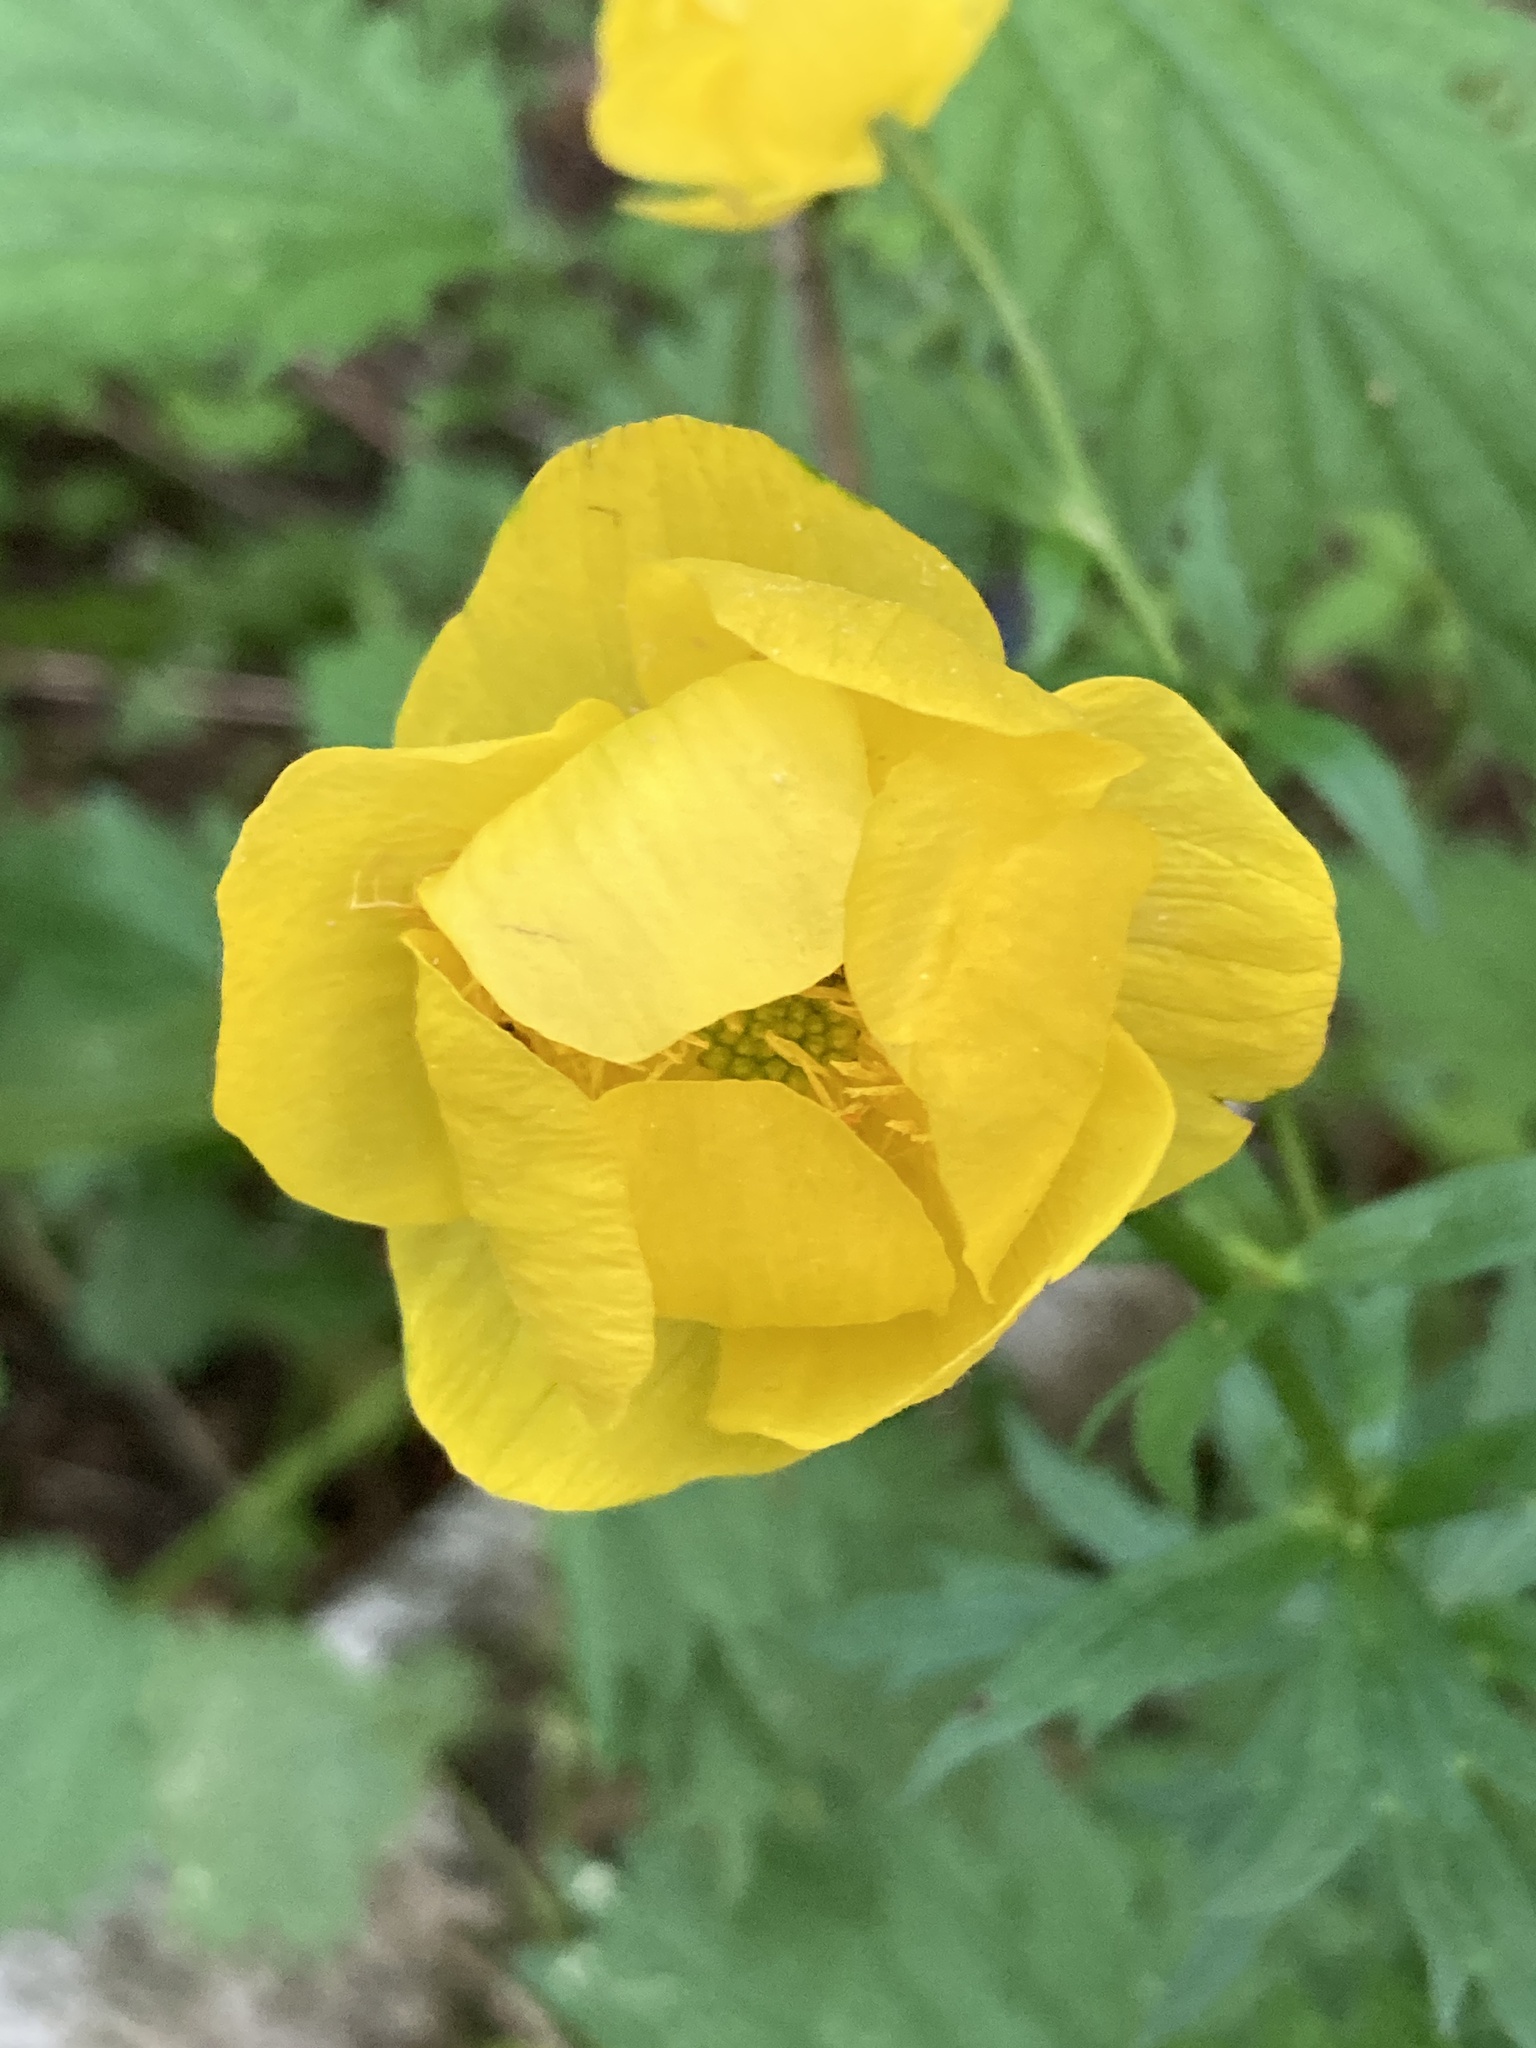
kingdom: Plantae
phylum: Tracheophyta
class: Magnoliopsida
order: Ranunculales
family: Ranunculaceae
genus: Trollius
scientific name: Trollius europaeus
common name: European globeflower
